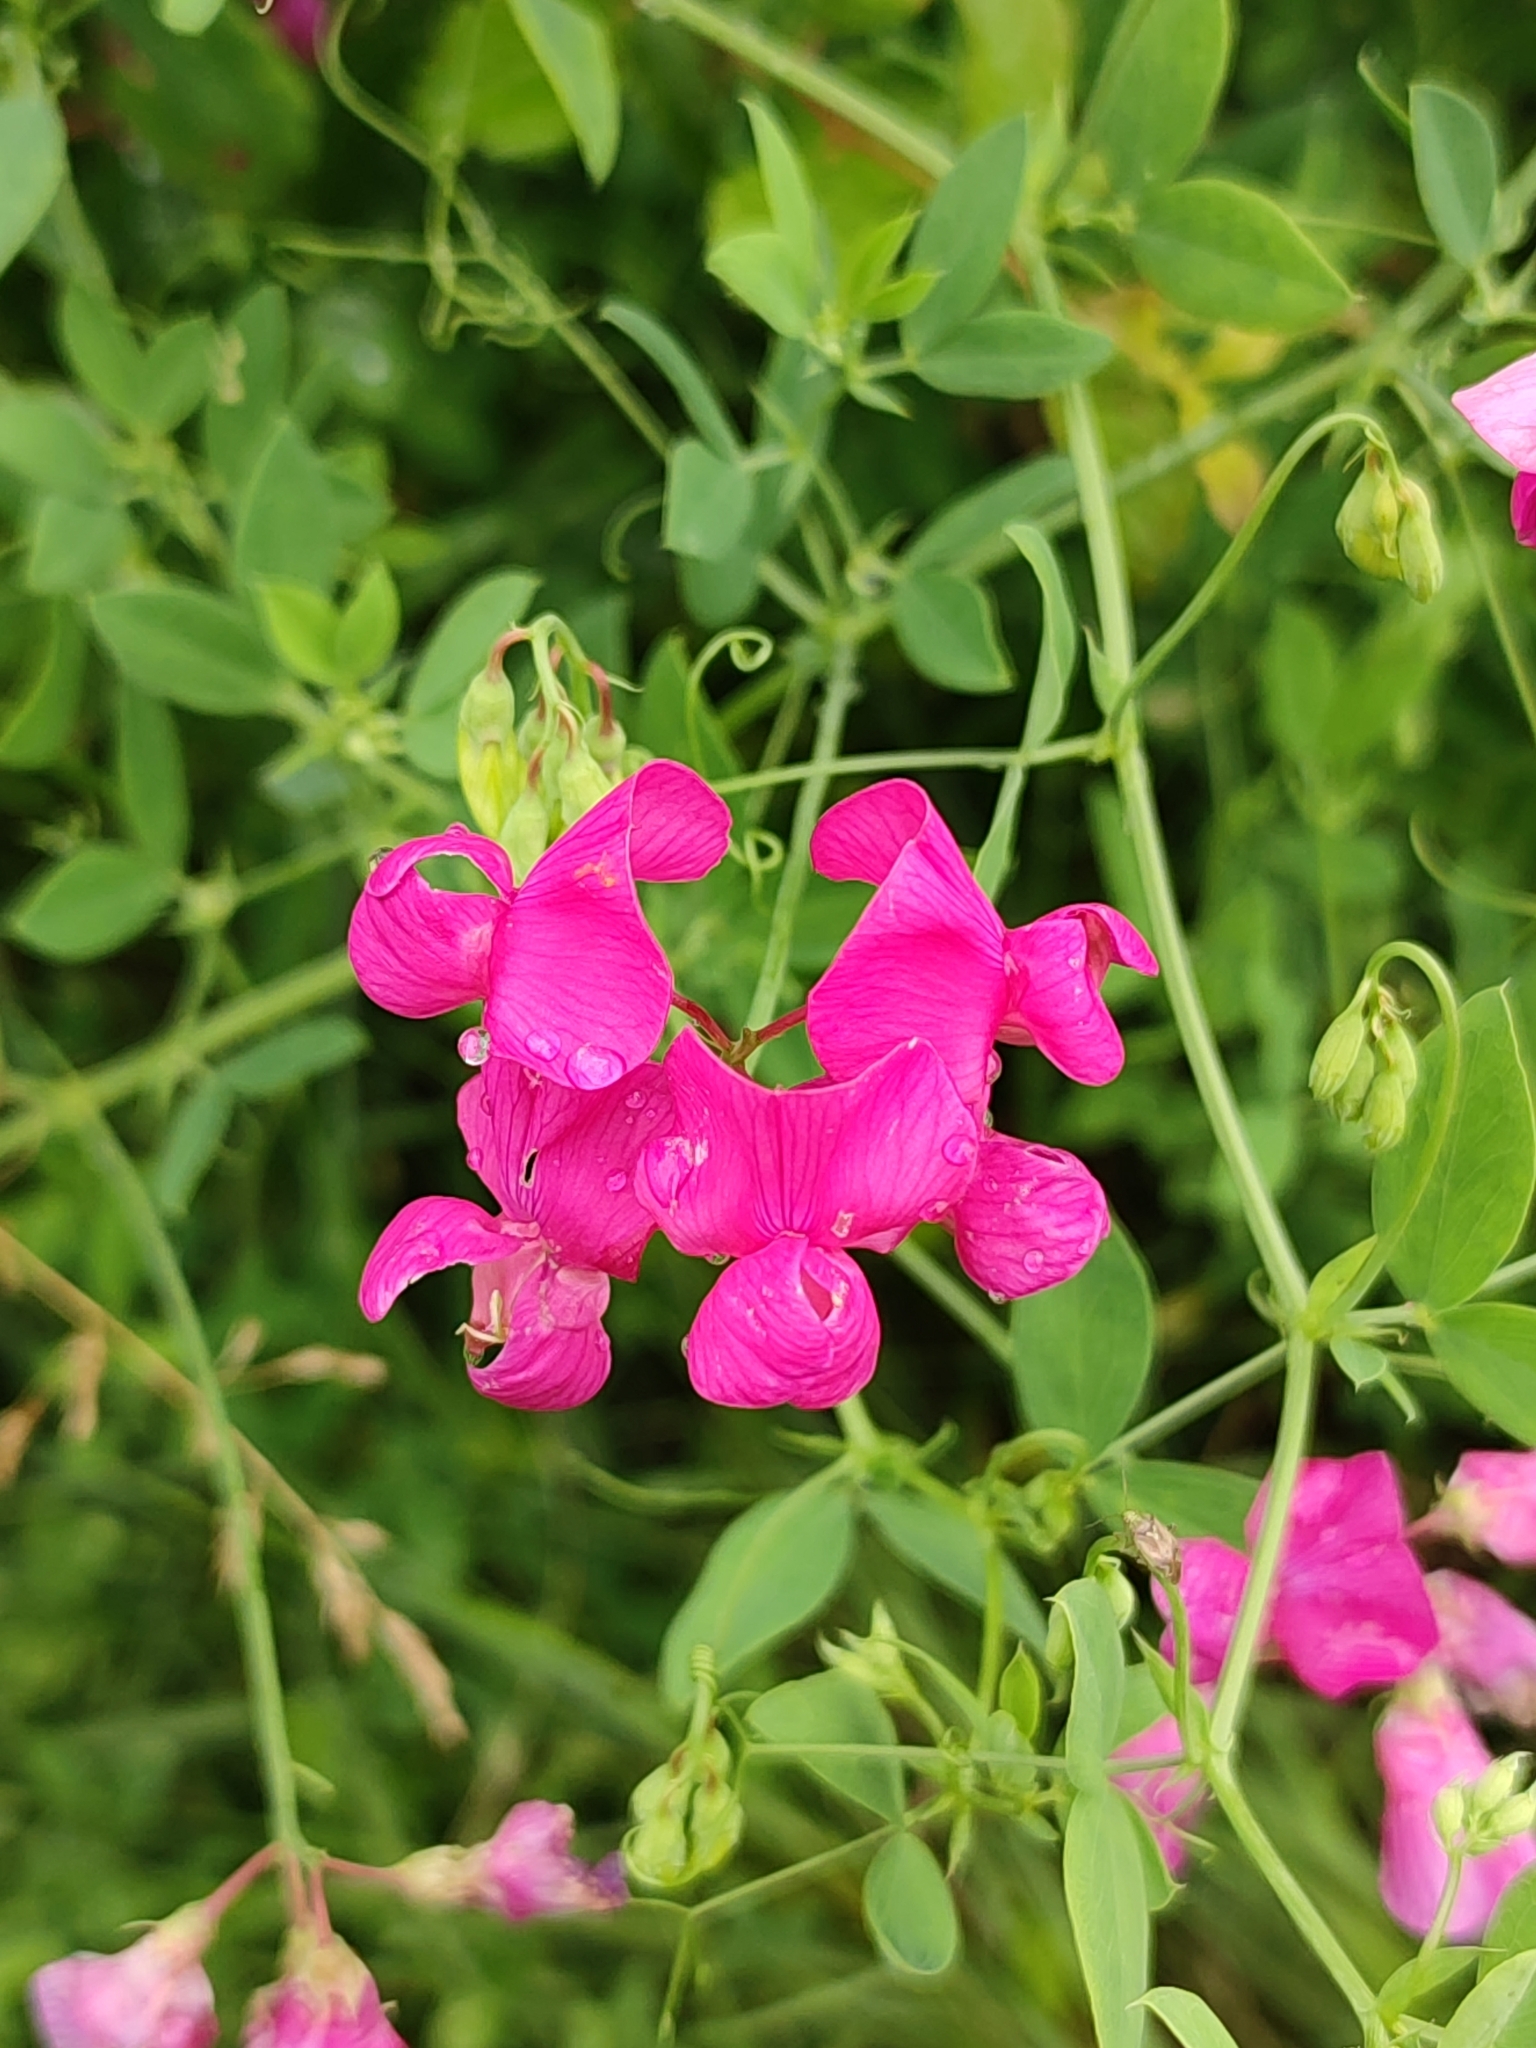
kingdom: Plantae
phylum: Tracheophyta
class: Magnoliopsida
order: Fabales
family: Fabaceae
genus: Lathyrus
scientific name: Lathyrus tuberosus
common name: Tuberous pea
